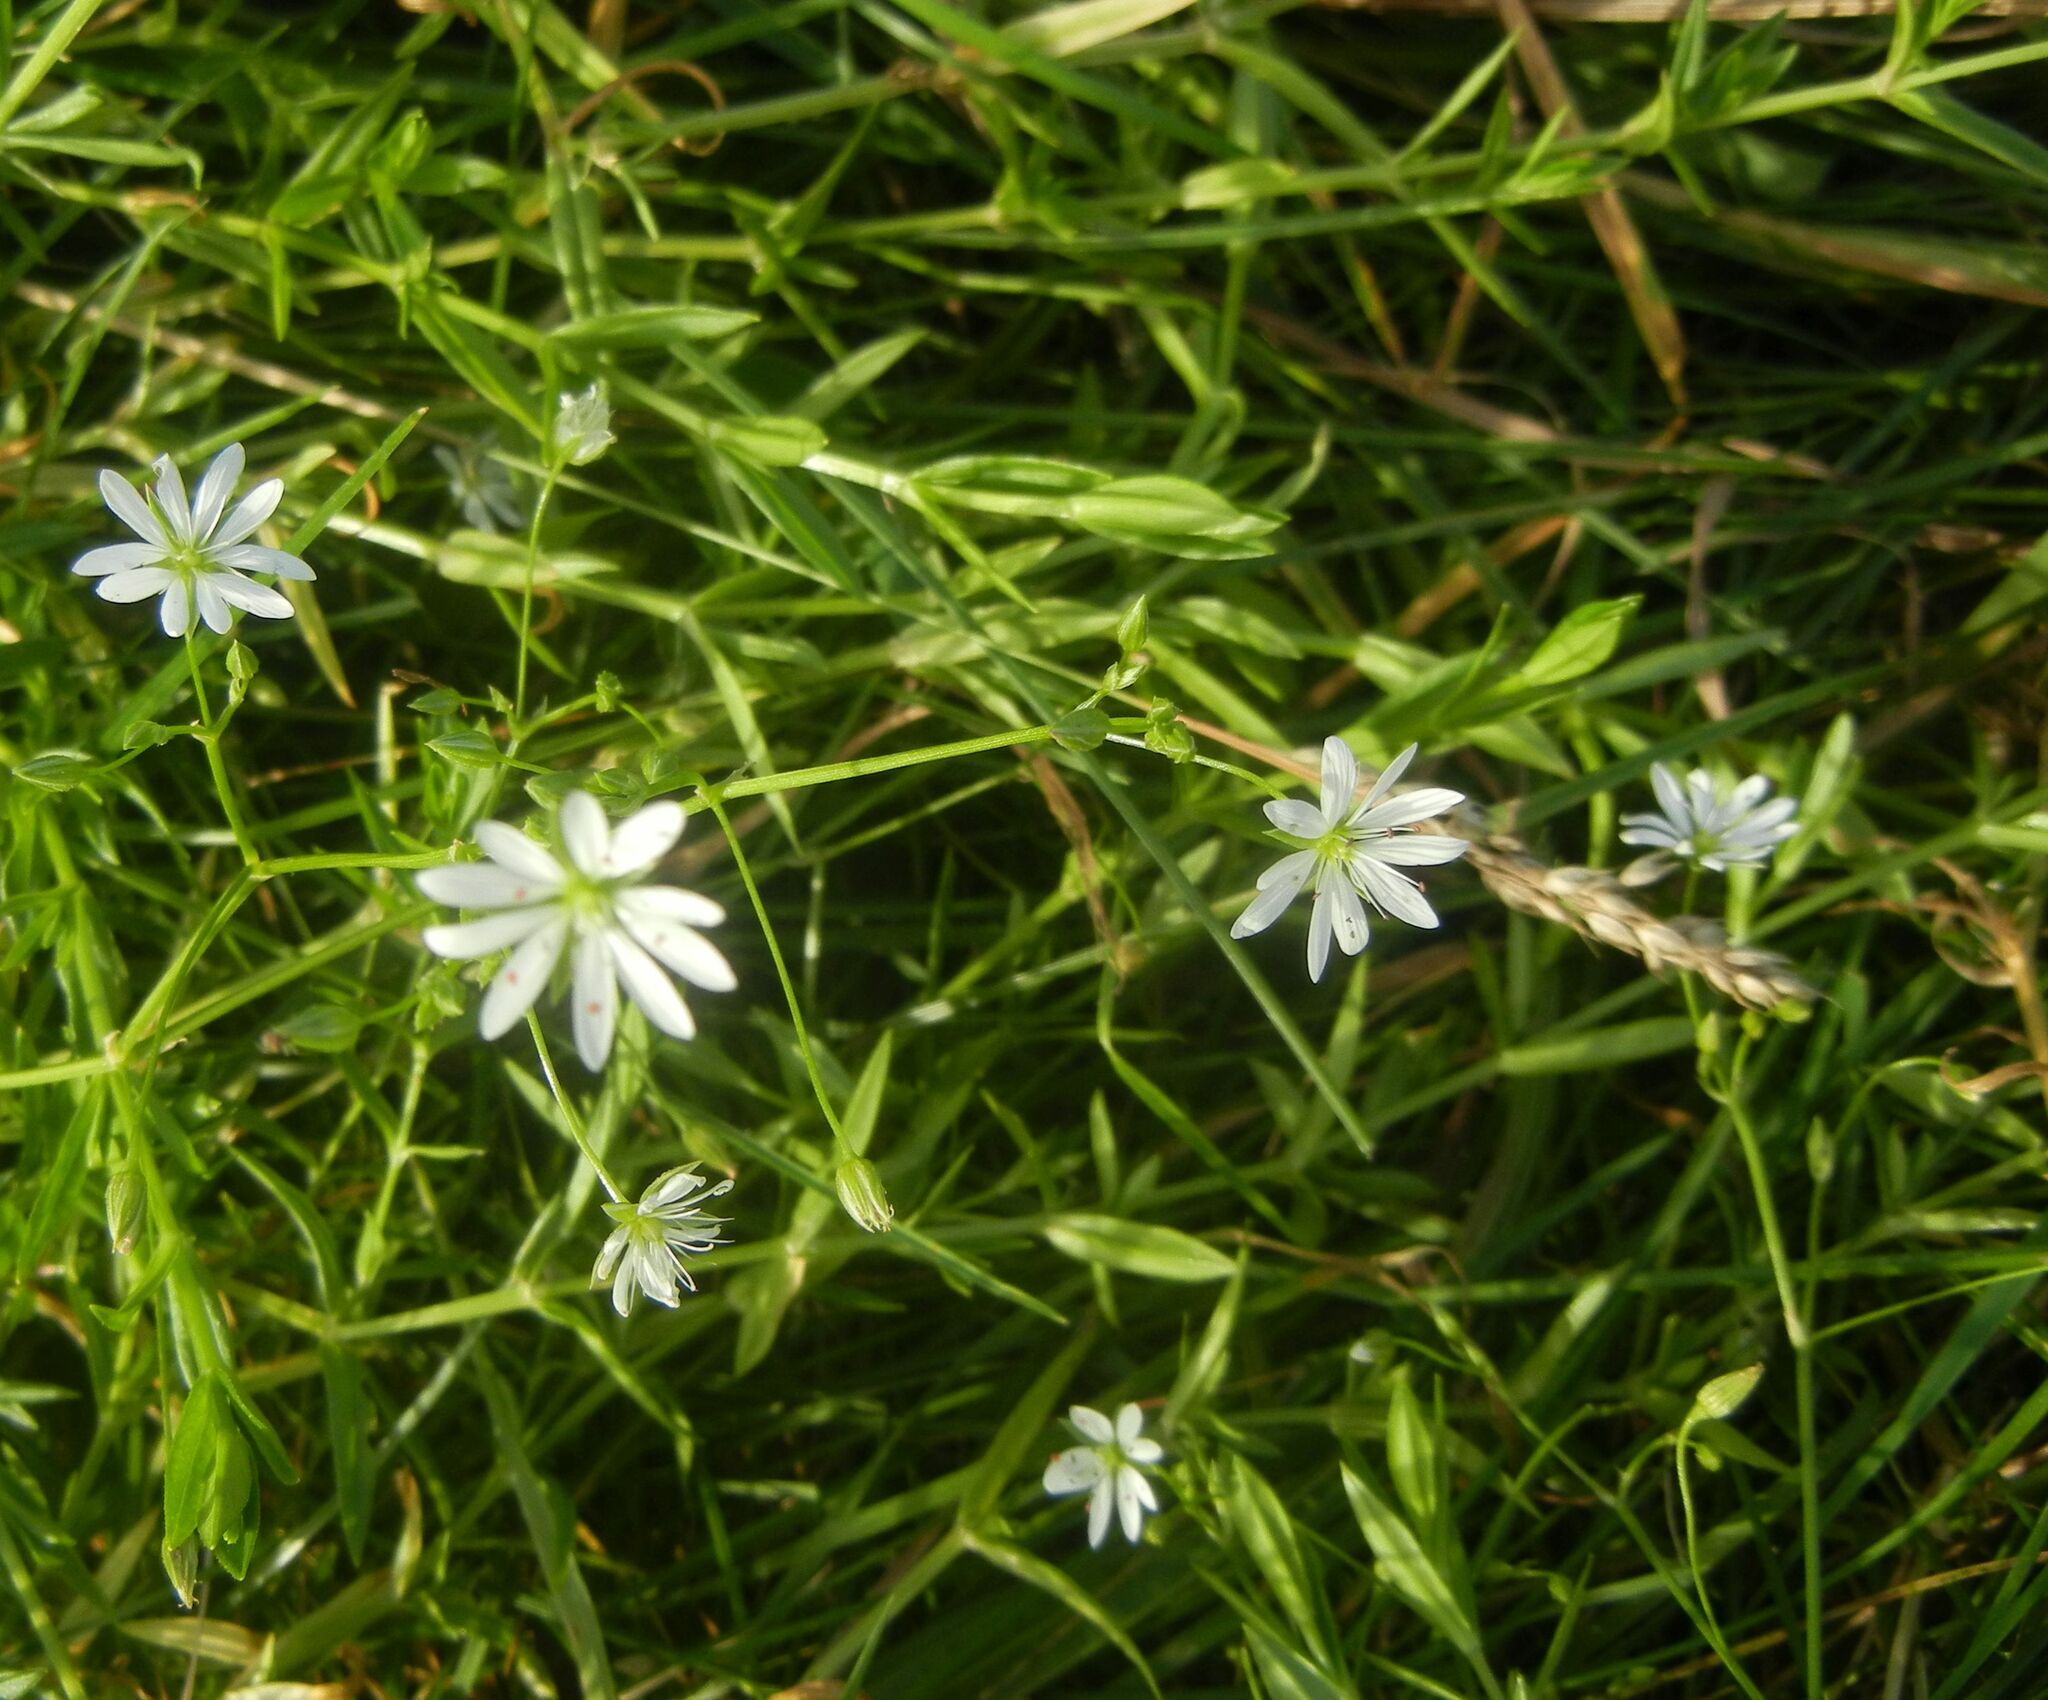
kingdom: Plantae
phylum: Tracheophyta
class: Magnoliopsida
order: Caryophyllales
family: Caryophyllaceae
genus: Stellaria
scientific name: Stellaria graminea
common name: Grass-like starwort
